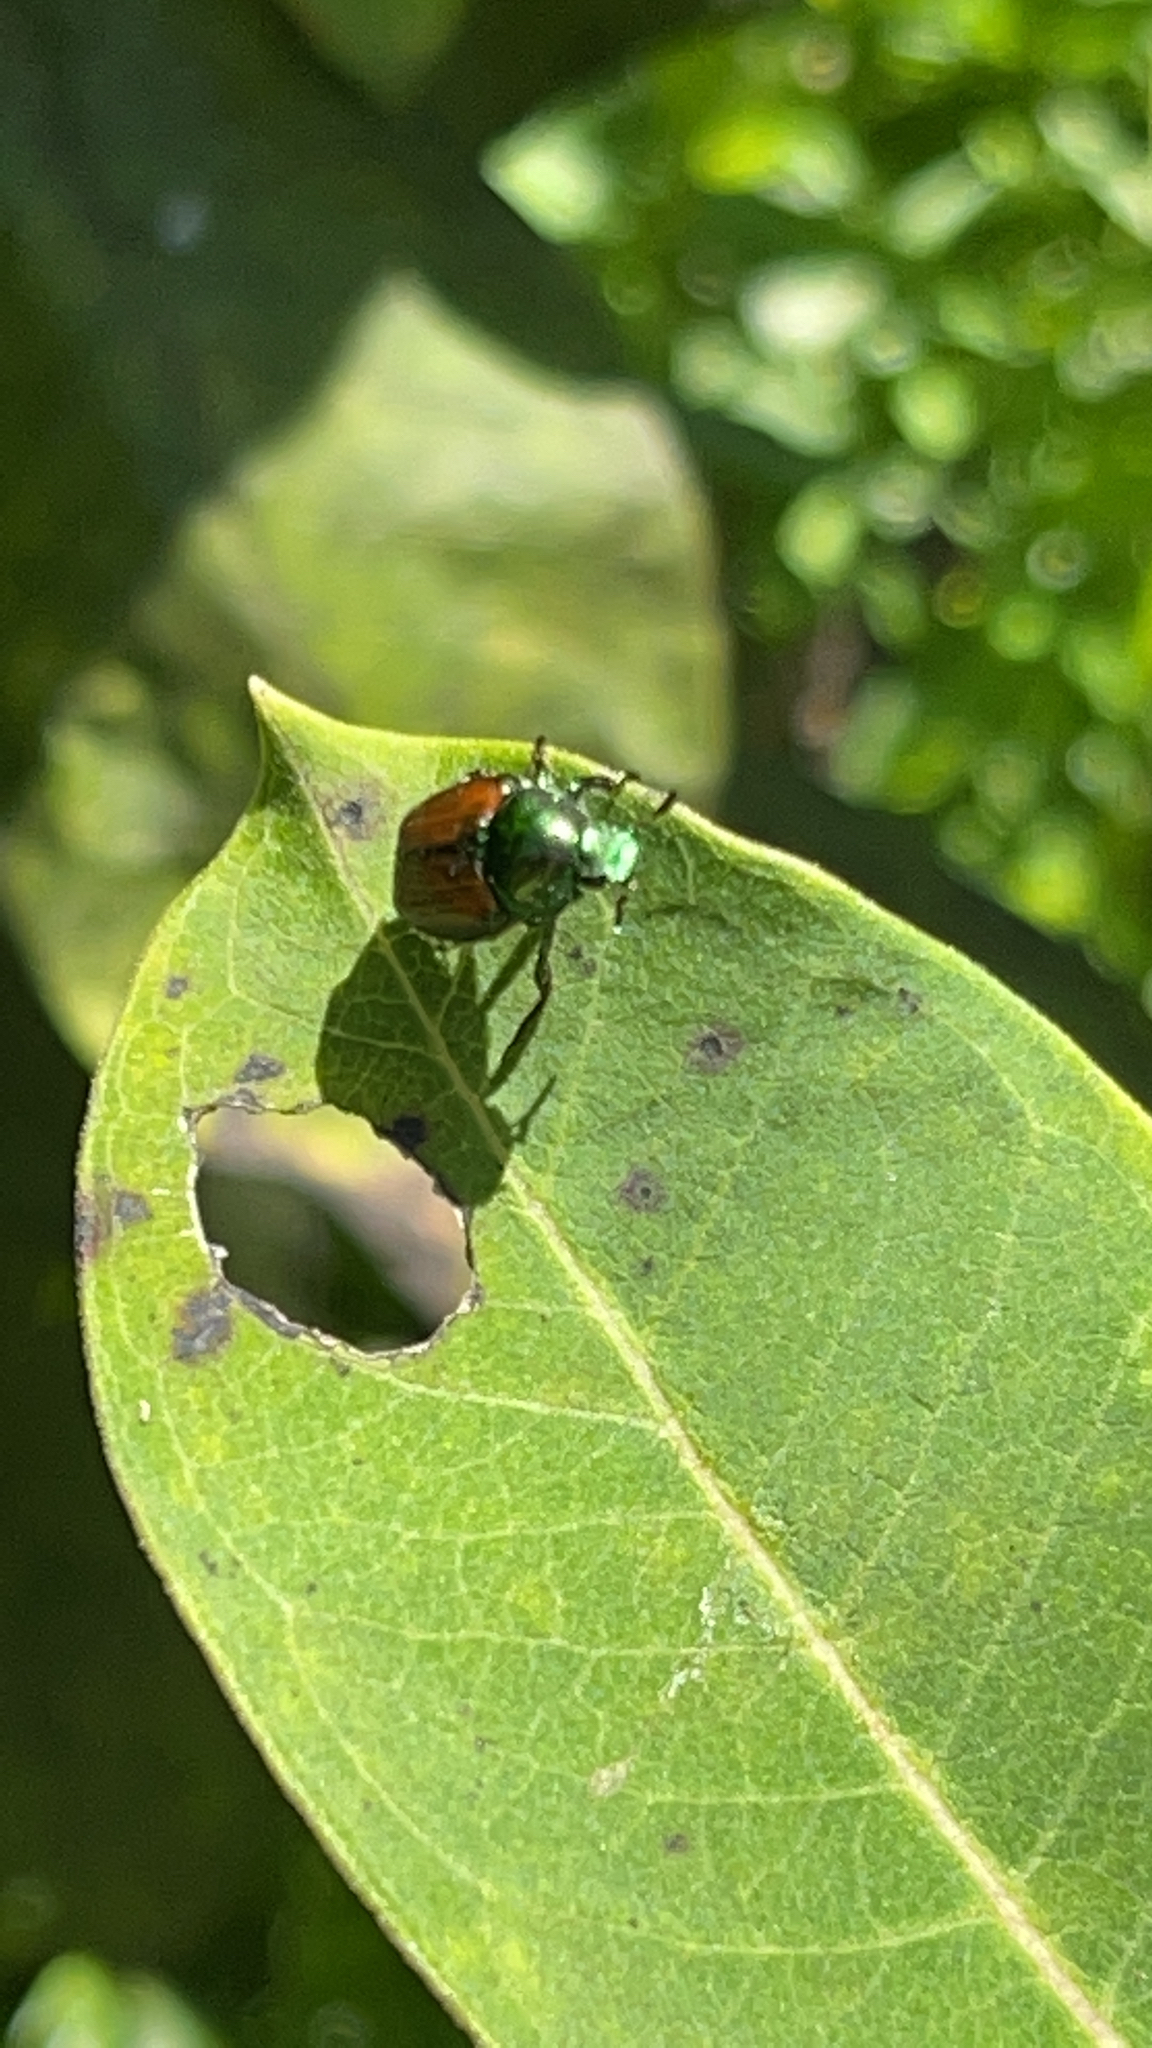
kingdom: Animalia
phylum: Arthropoda
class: Insecta
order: Coleoptera
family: Scarabaeidae
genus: Popillia
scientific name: Popillia japonica
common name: Japanese beetle
